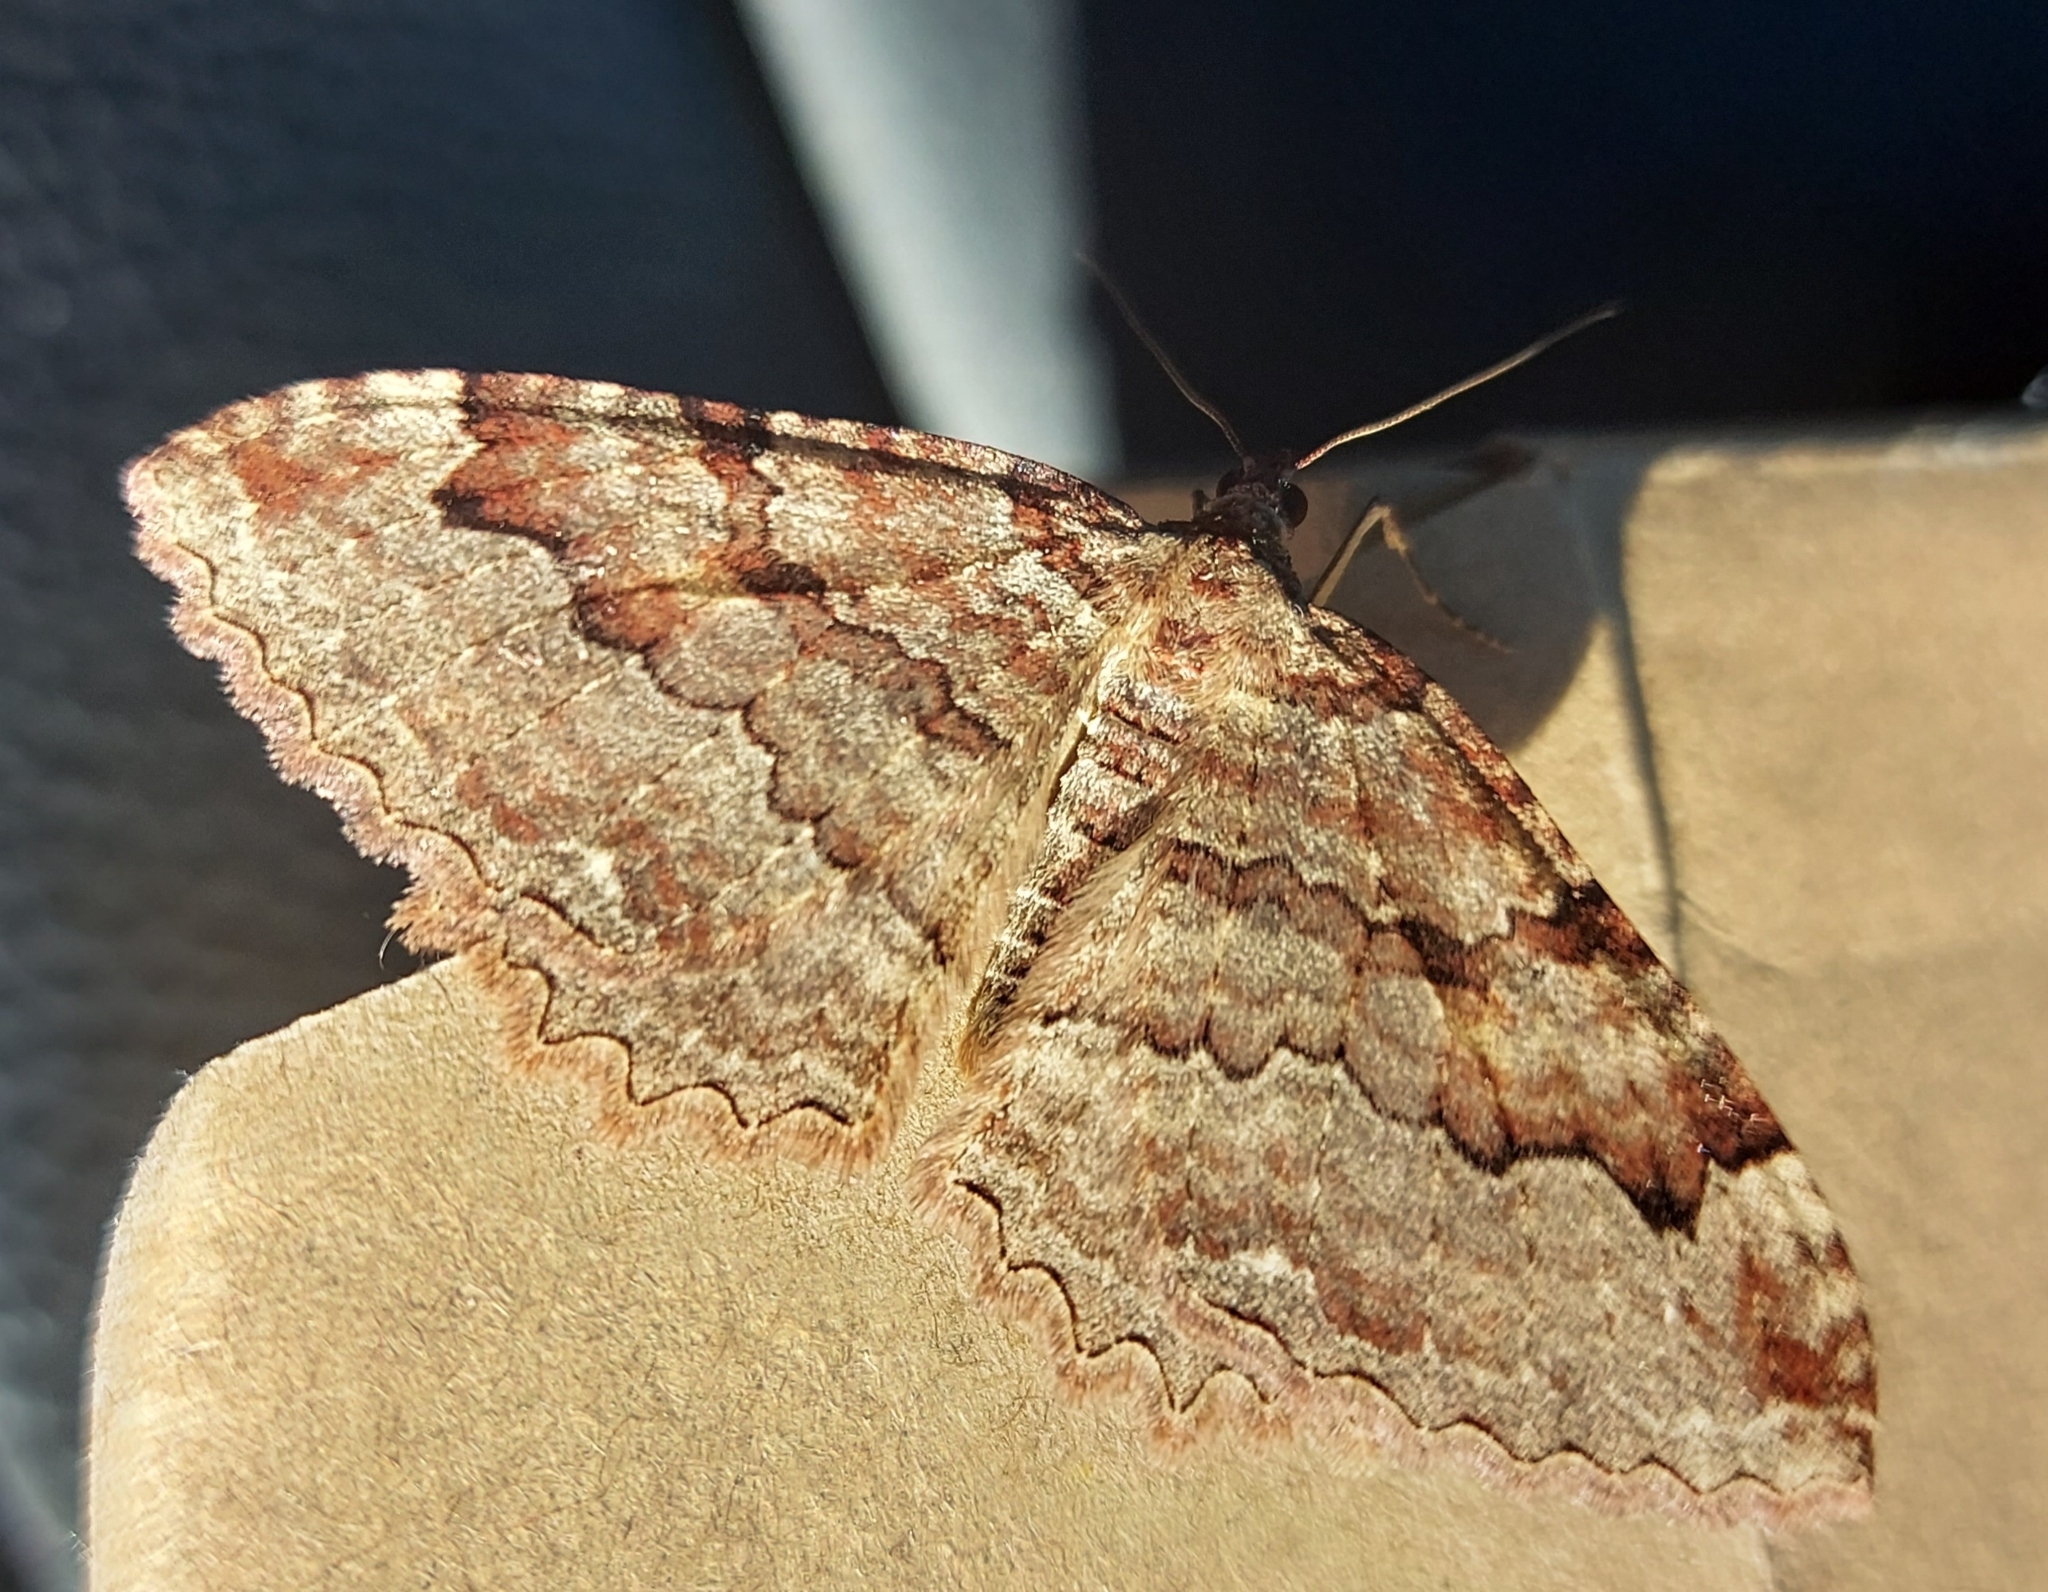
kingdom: Animalia
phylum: Arthropoda
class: Insecta
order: Lepidoptera
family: Geometridae
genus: Triphosa
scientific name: Triphosa haesitata
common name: Tissue moth
